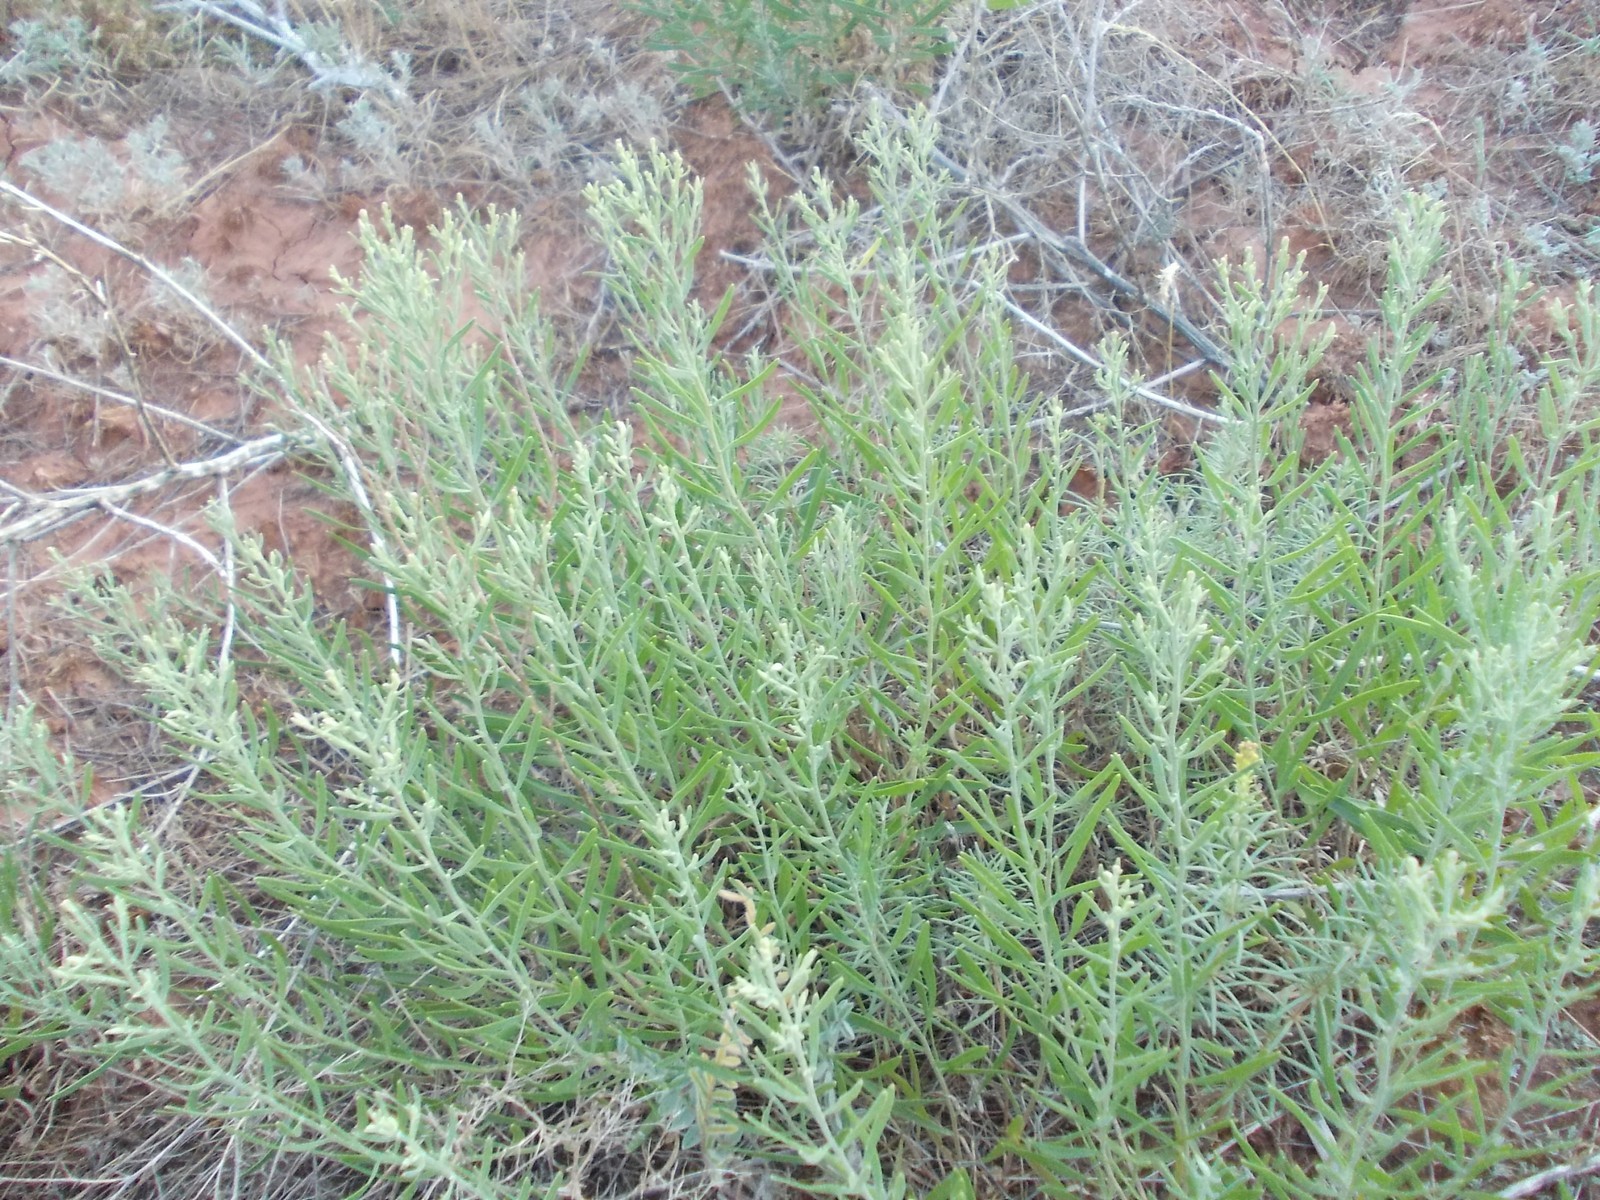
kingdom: Plantae
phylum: Tracheophyta
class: Magnoliopsida
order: Asterales
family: Asteraceae
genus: Galatella
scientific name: Galatella sedifolia
